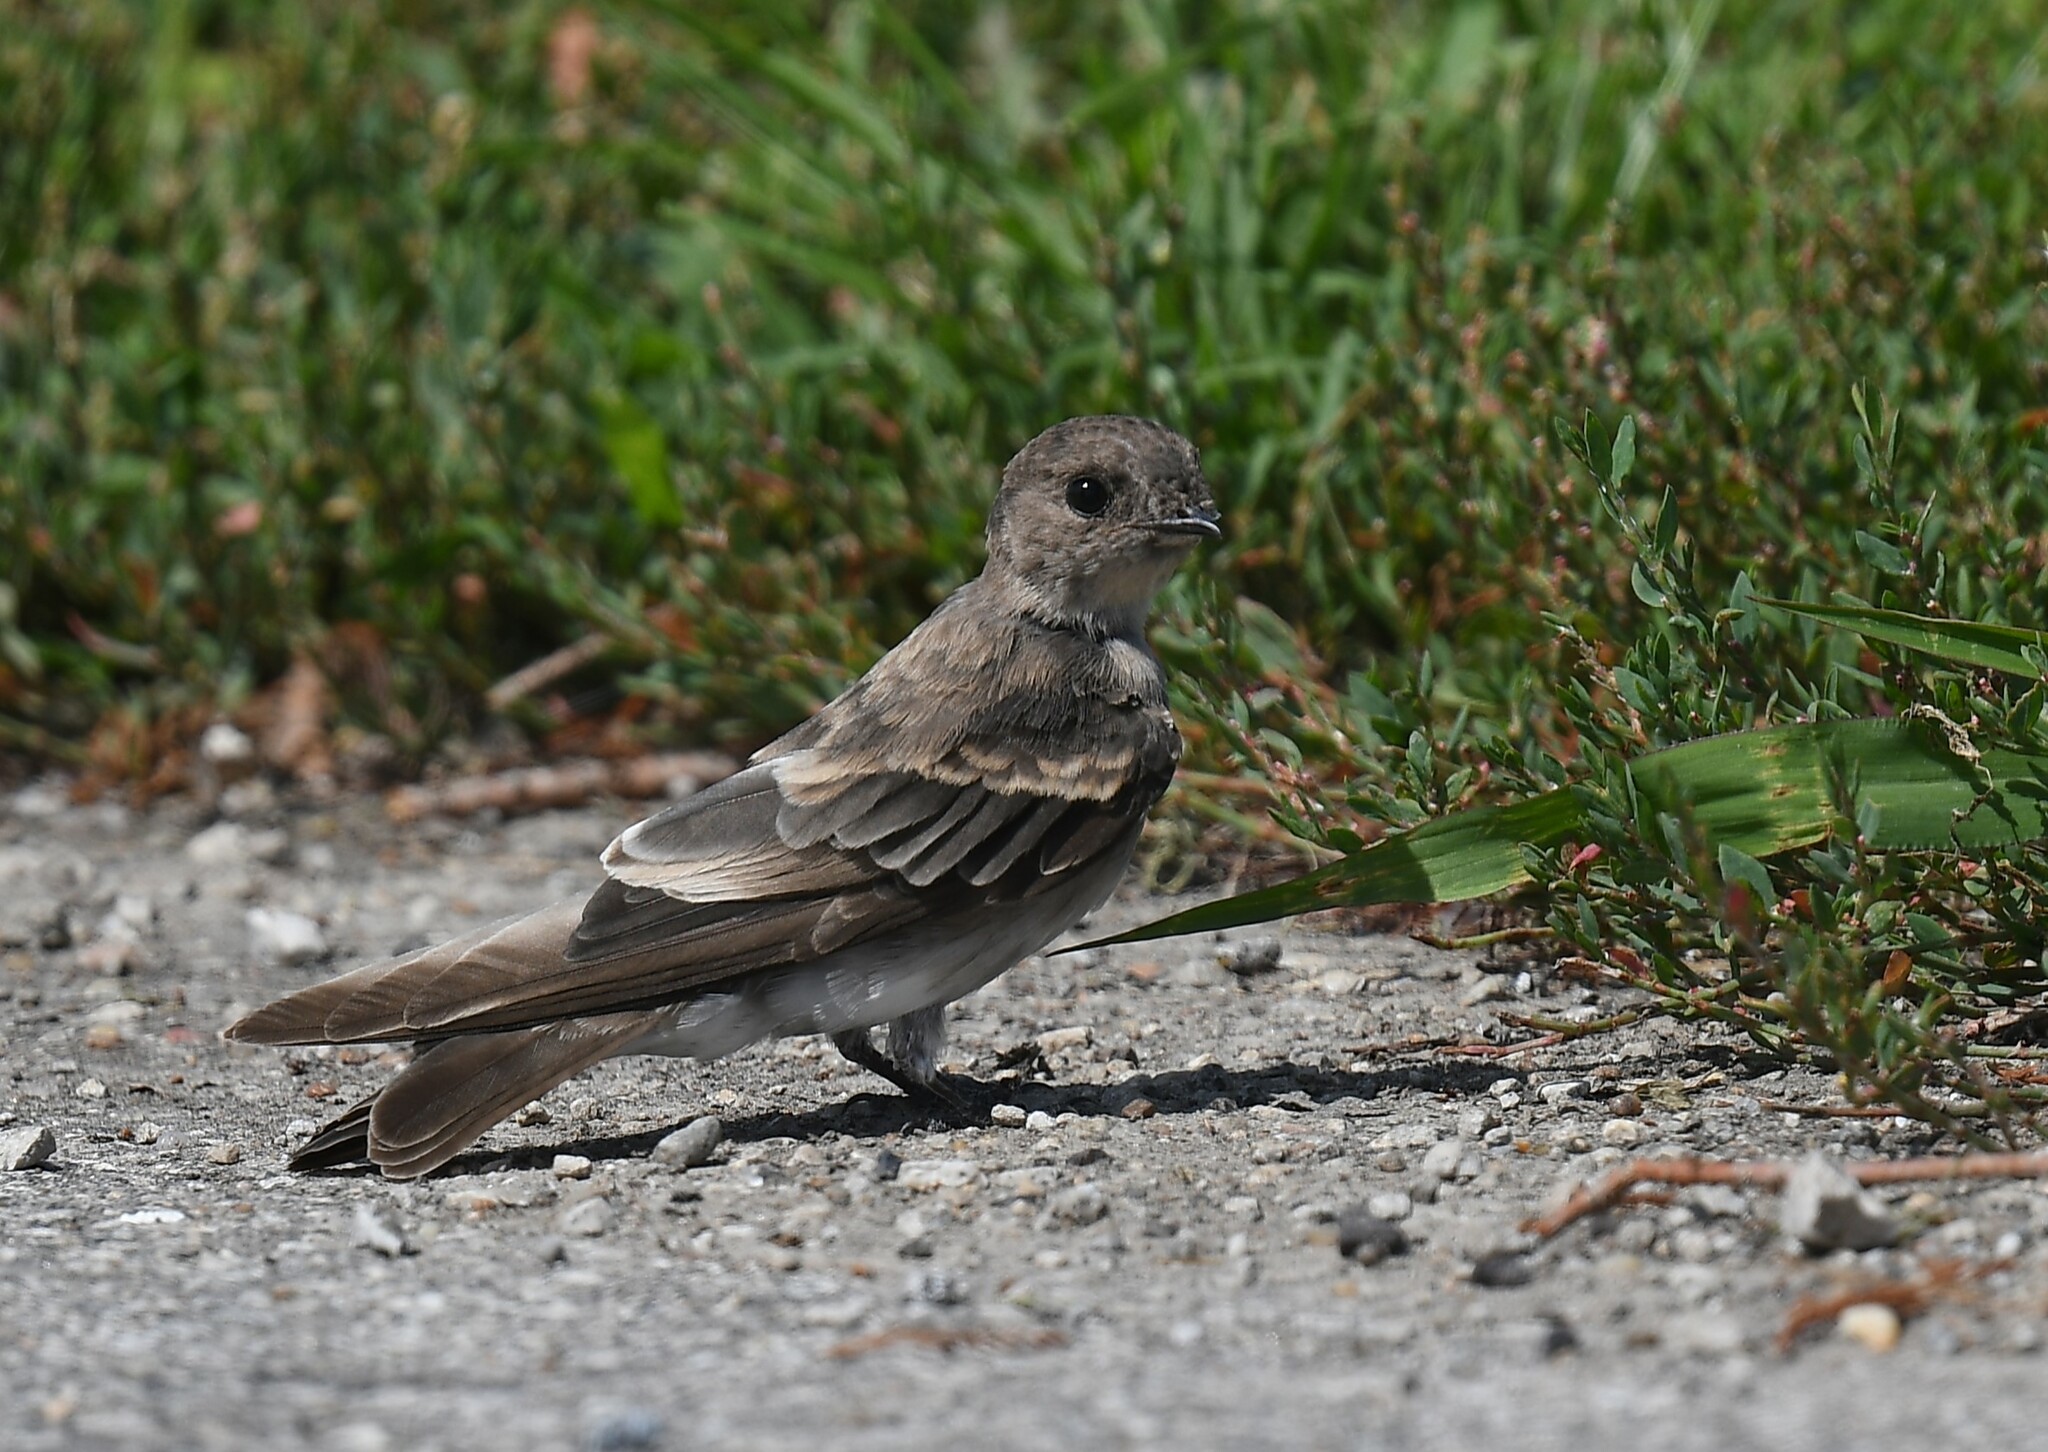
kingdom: Animalia
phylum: Chordata
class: Aves
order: Passeriformes
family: Hirundinidae
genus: Stelgidopteryx
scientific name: Stelgidopteryx serripennis
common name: Northern rough-winged swallow
